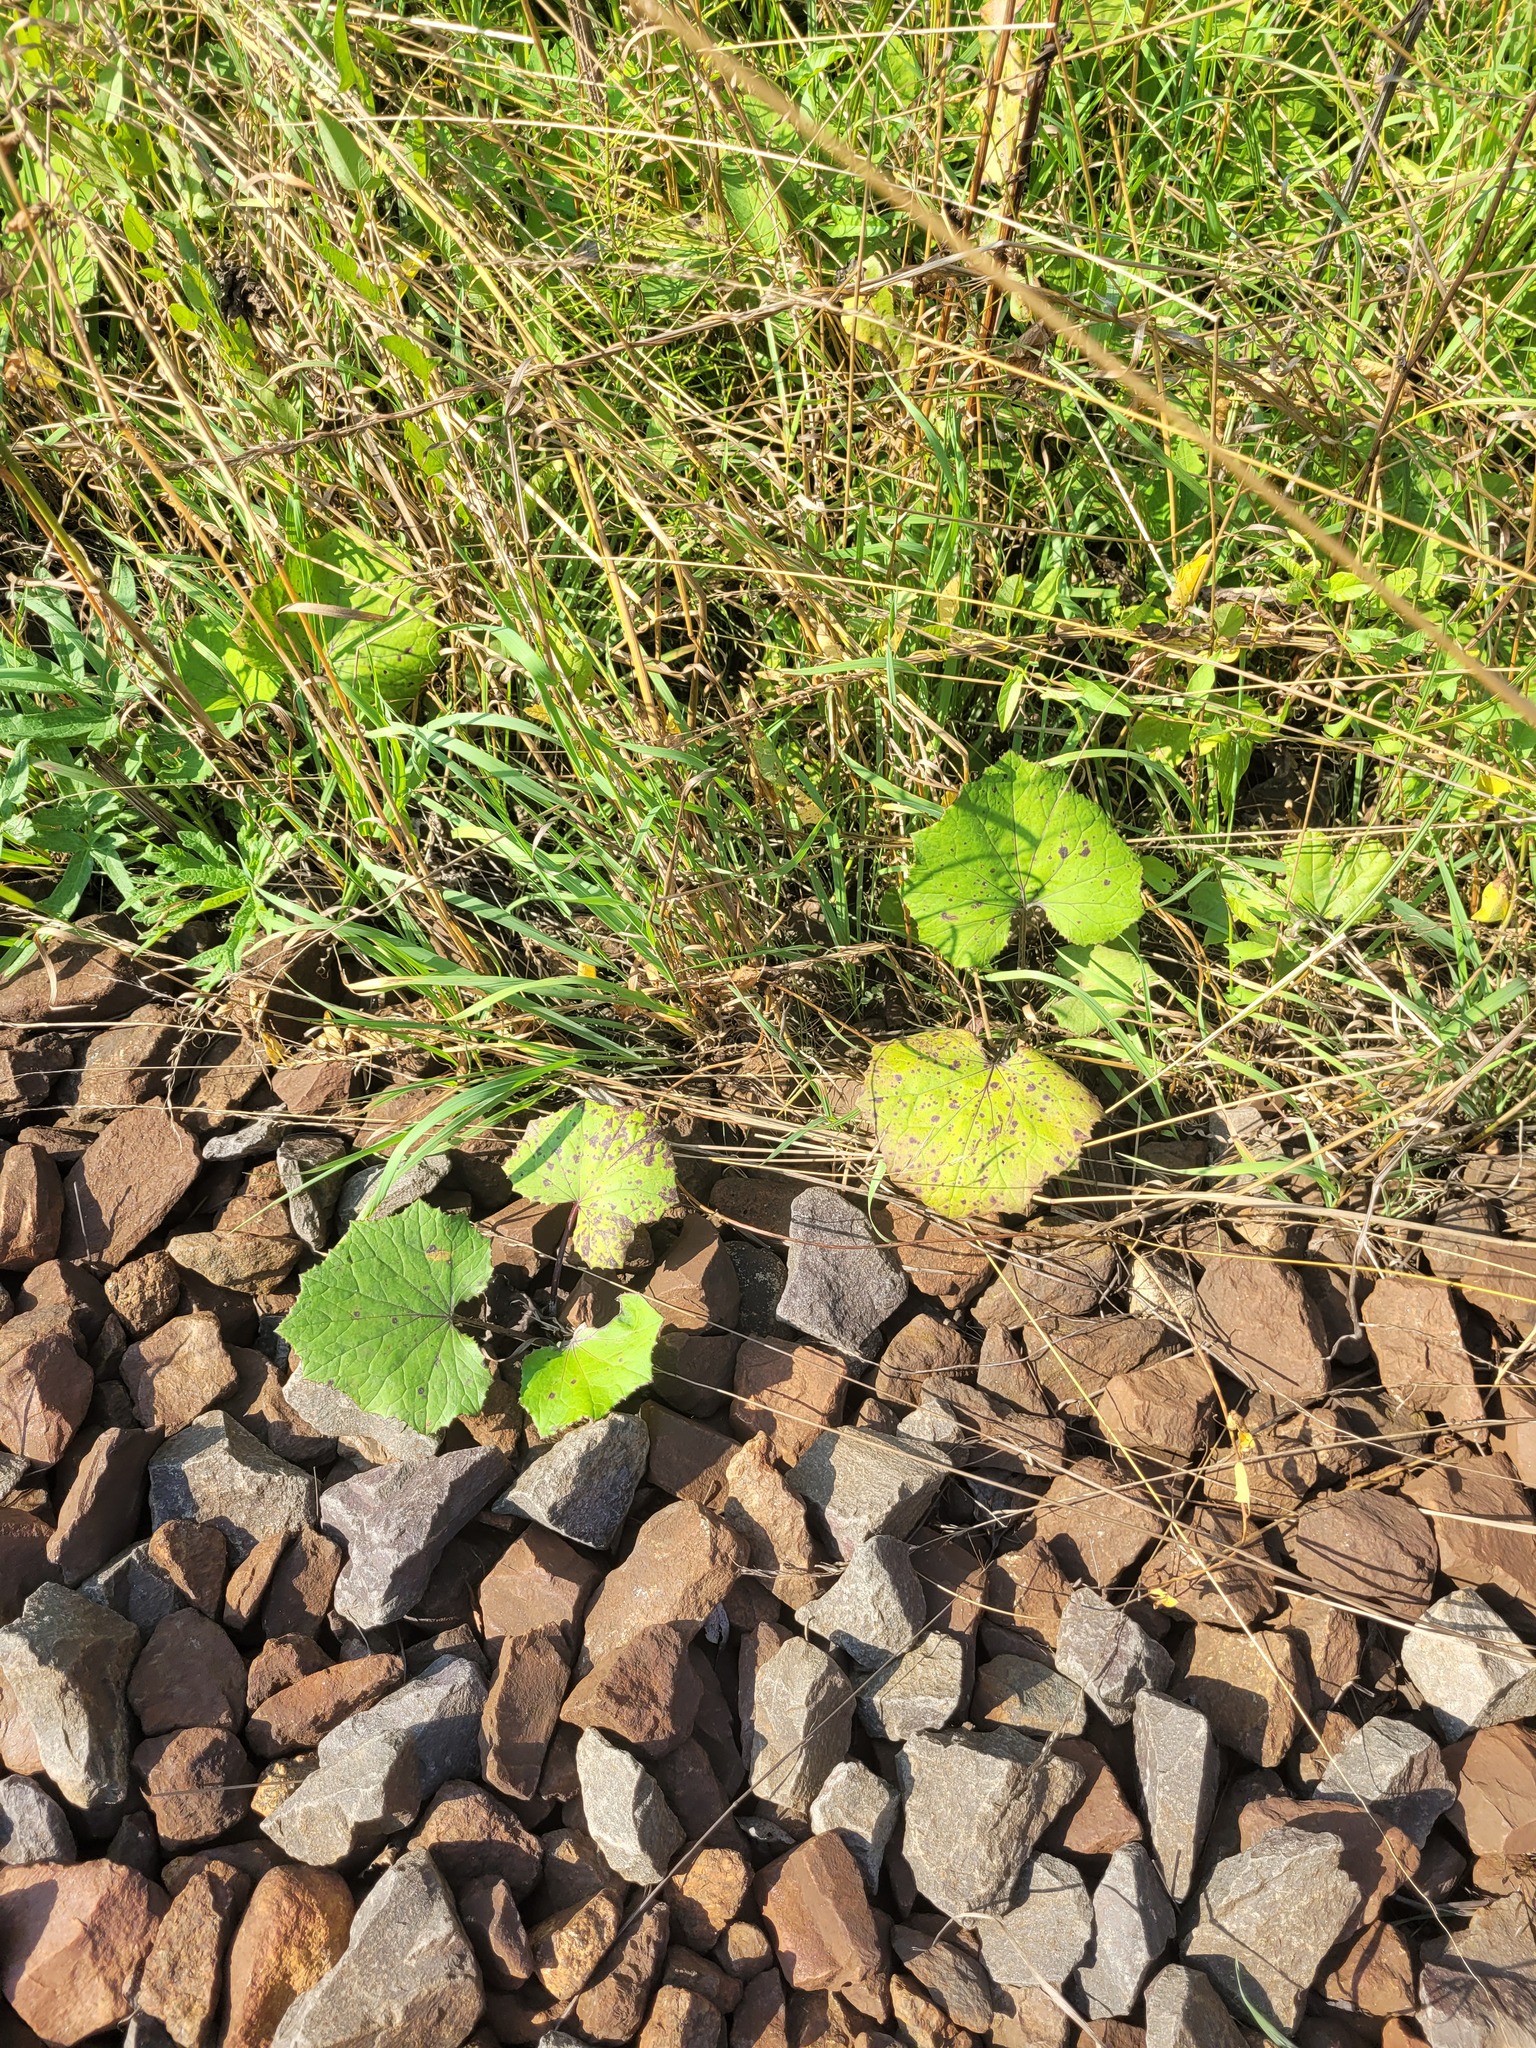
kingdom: Plantae
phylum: Tracheophyta
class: Magnoliopsida
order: Asterales
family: Asteraceae
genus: Tussilago
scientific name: Tussilago farfara
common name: Coltsfoot
